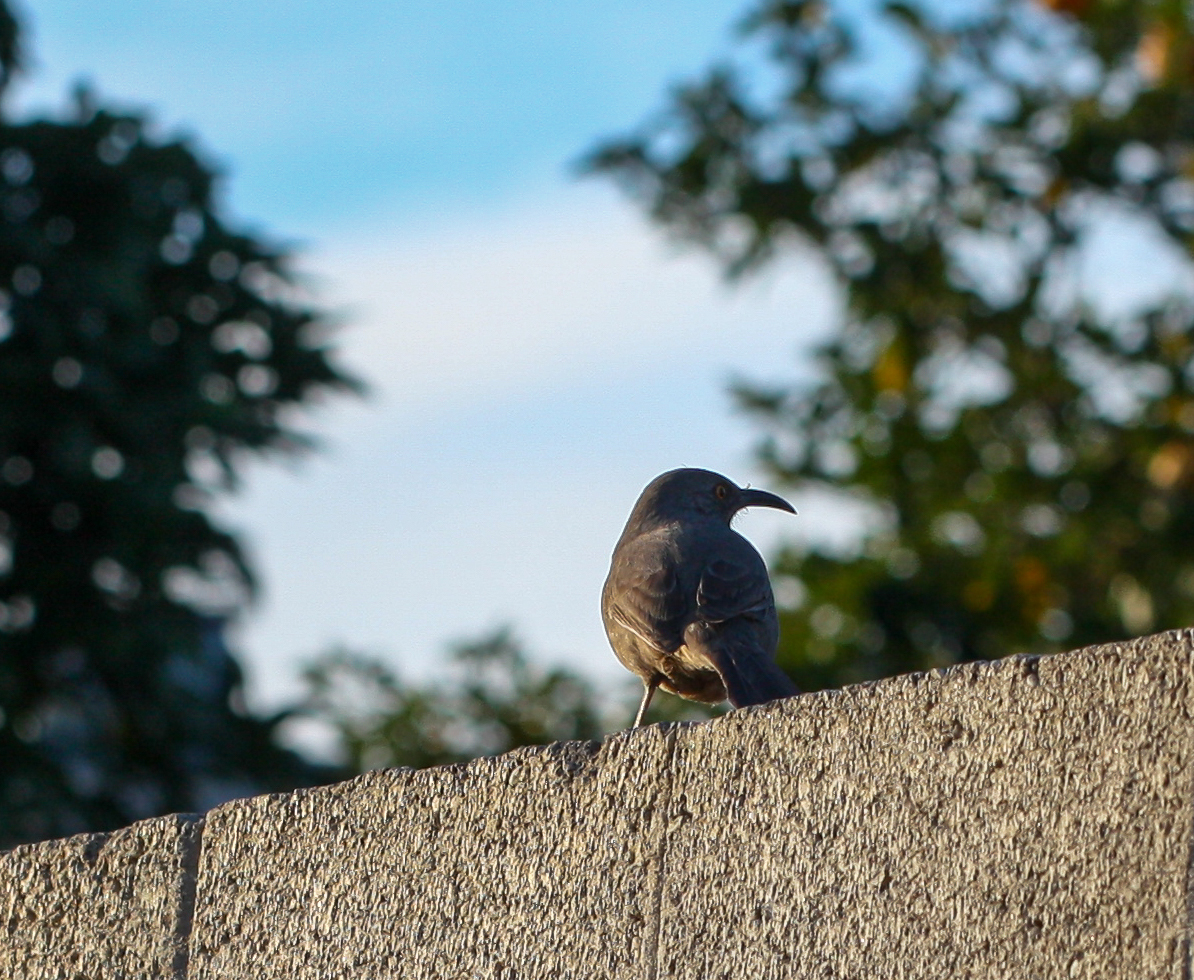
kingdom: Animalia
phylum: Chordata
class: Aves
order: Passeriformes
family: Mimidae
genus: Toxostoma
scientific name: Toxostoma curvirostre
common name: Curve-billed thrasher
